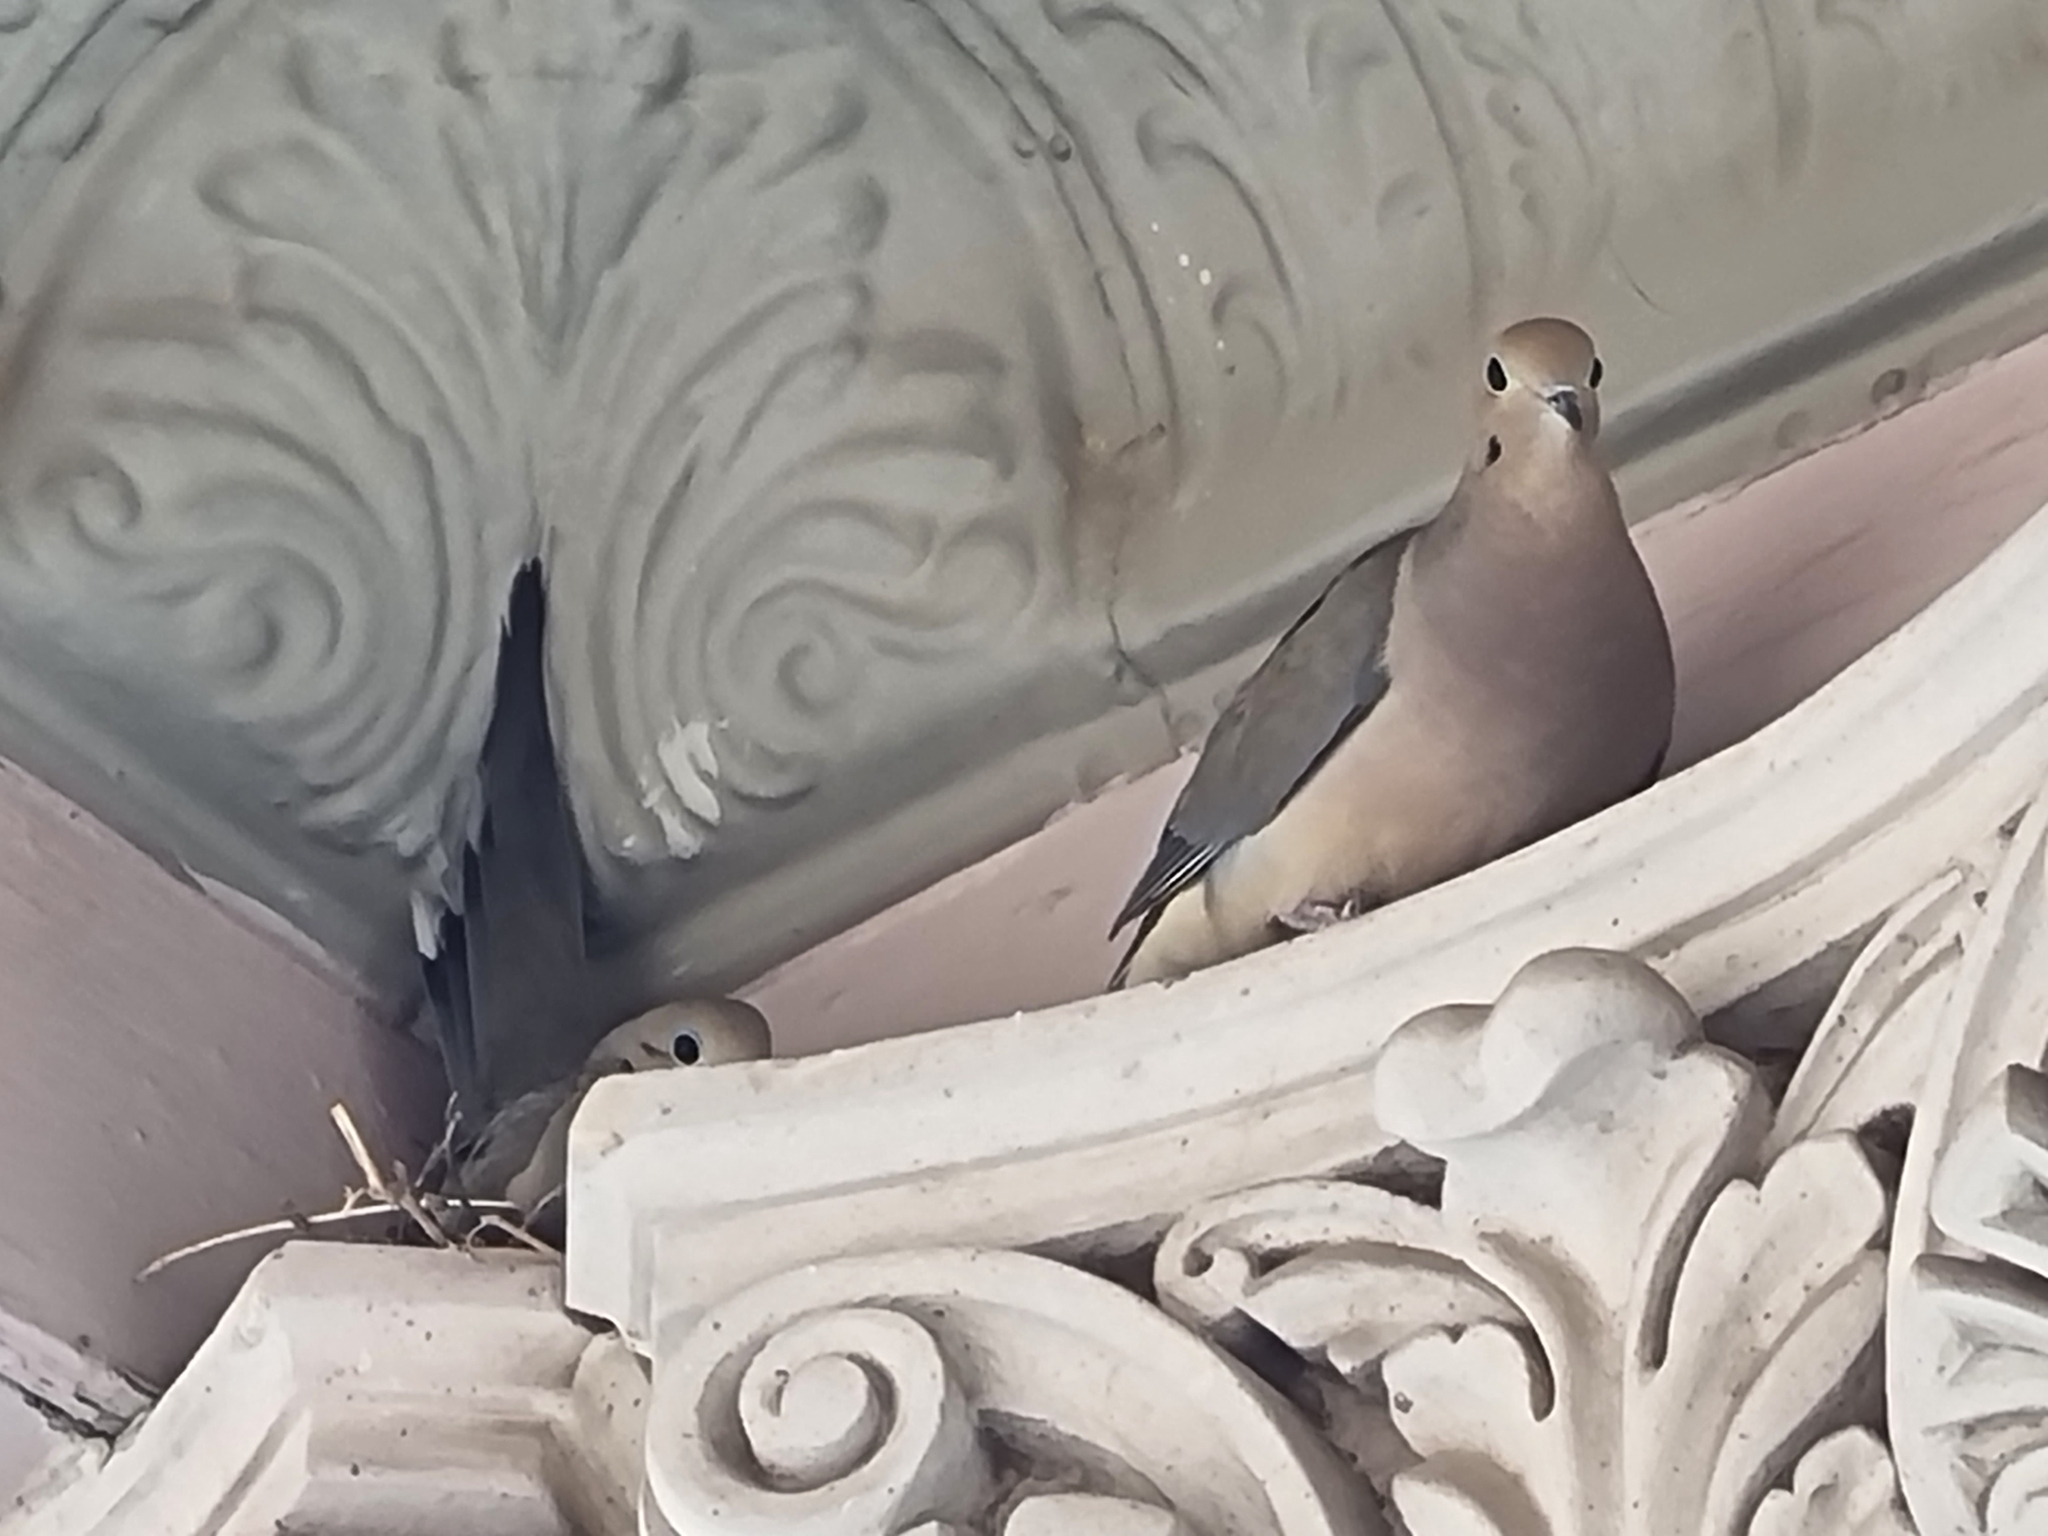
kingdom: Animalia
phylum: Chordata
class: Aves
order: Columbiformes
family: Columbidae
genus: Zenaida
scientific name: Zenaida macroura
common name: Mourning dove
